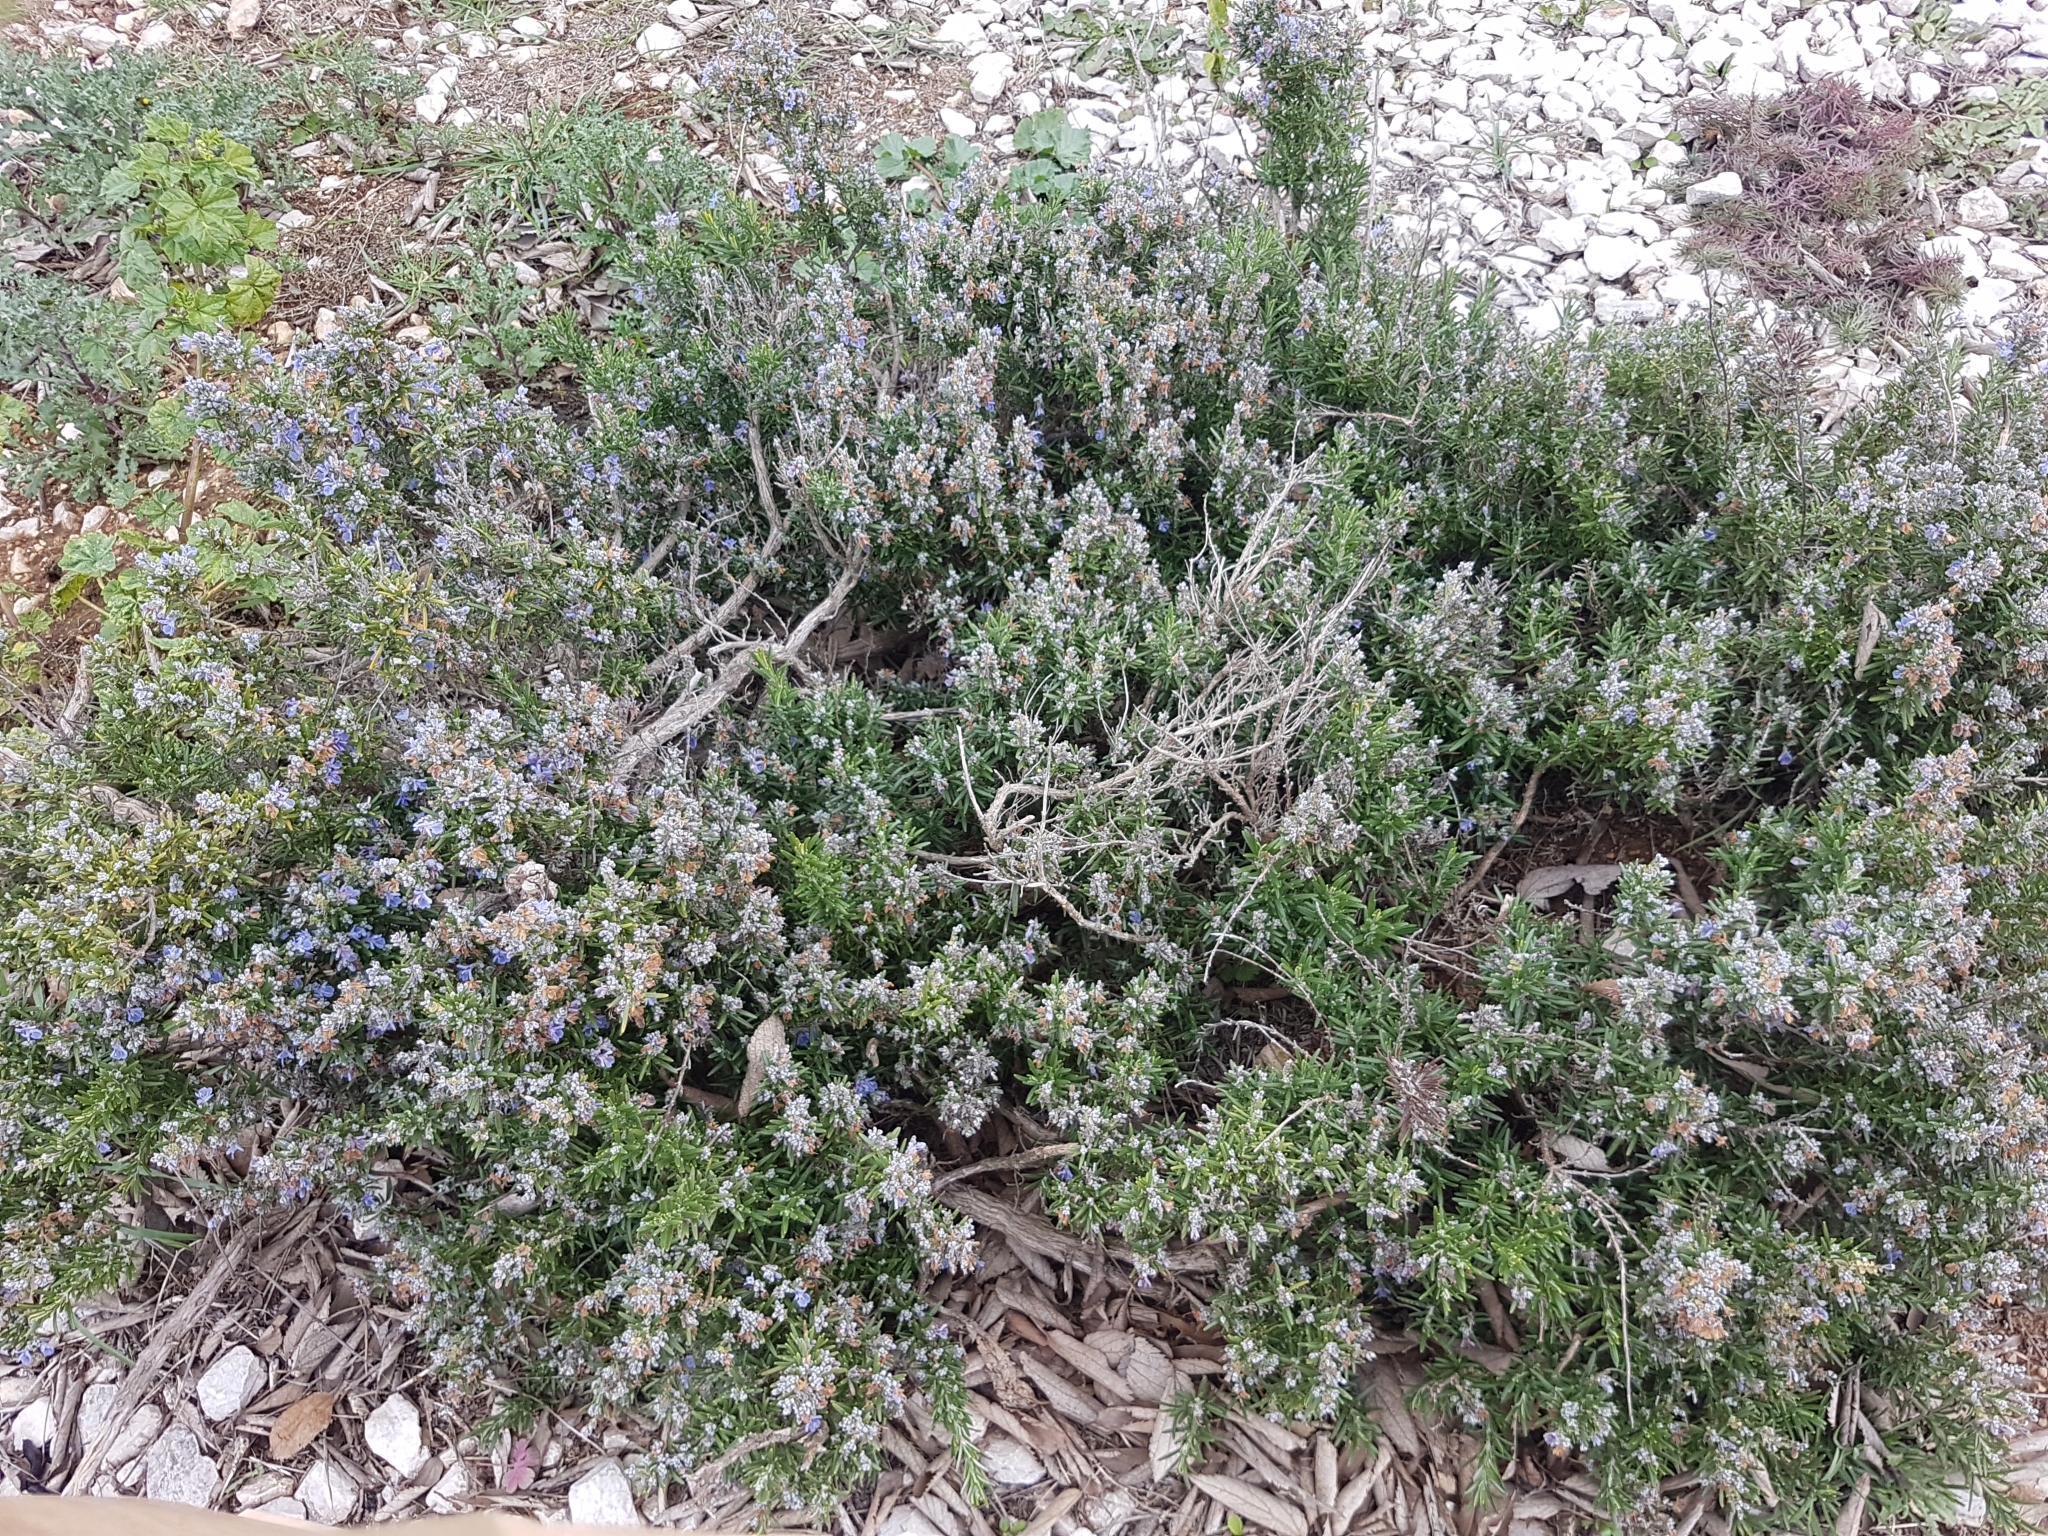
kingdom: Plantae
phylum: Tracheophyta
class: Magnoliopsida
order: Lamiales
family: Lamiaceae
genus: Salvia
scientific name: Salvia rosmarinus
